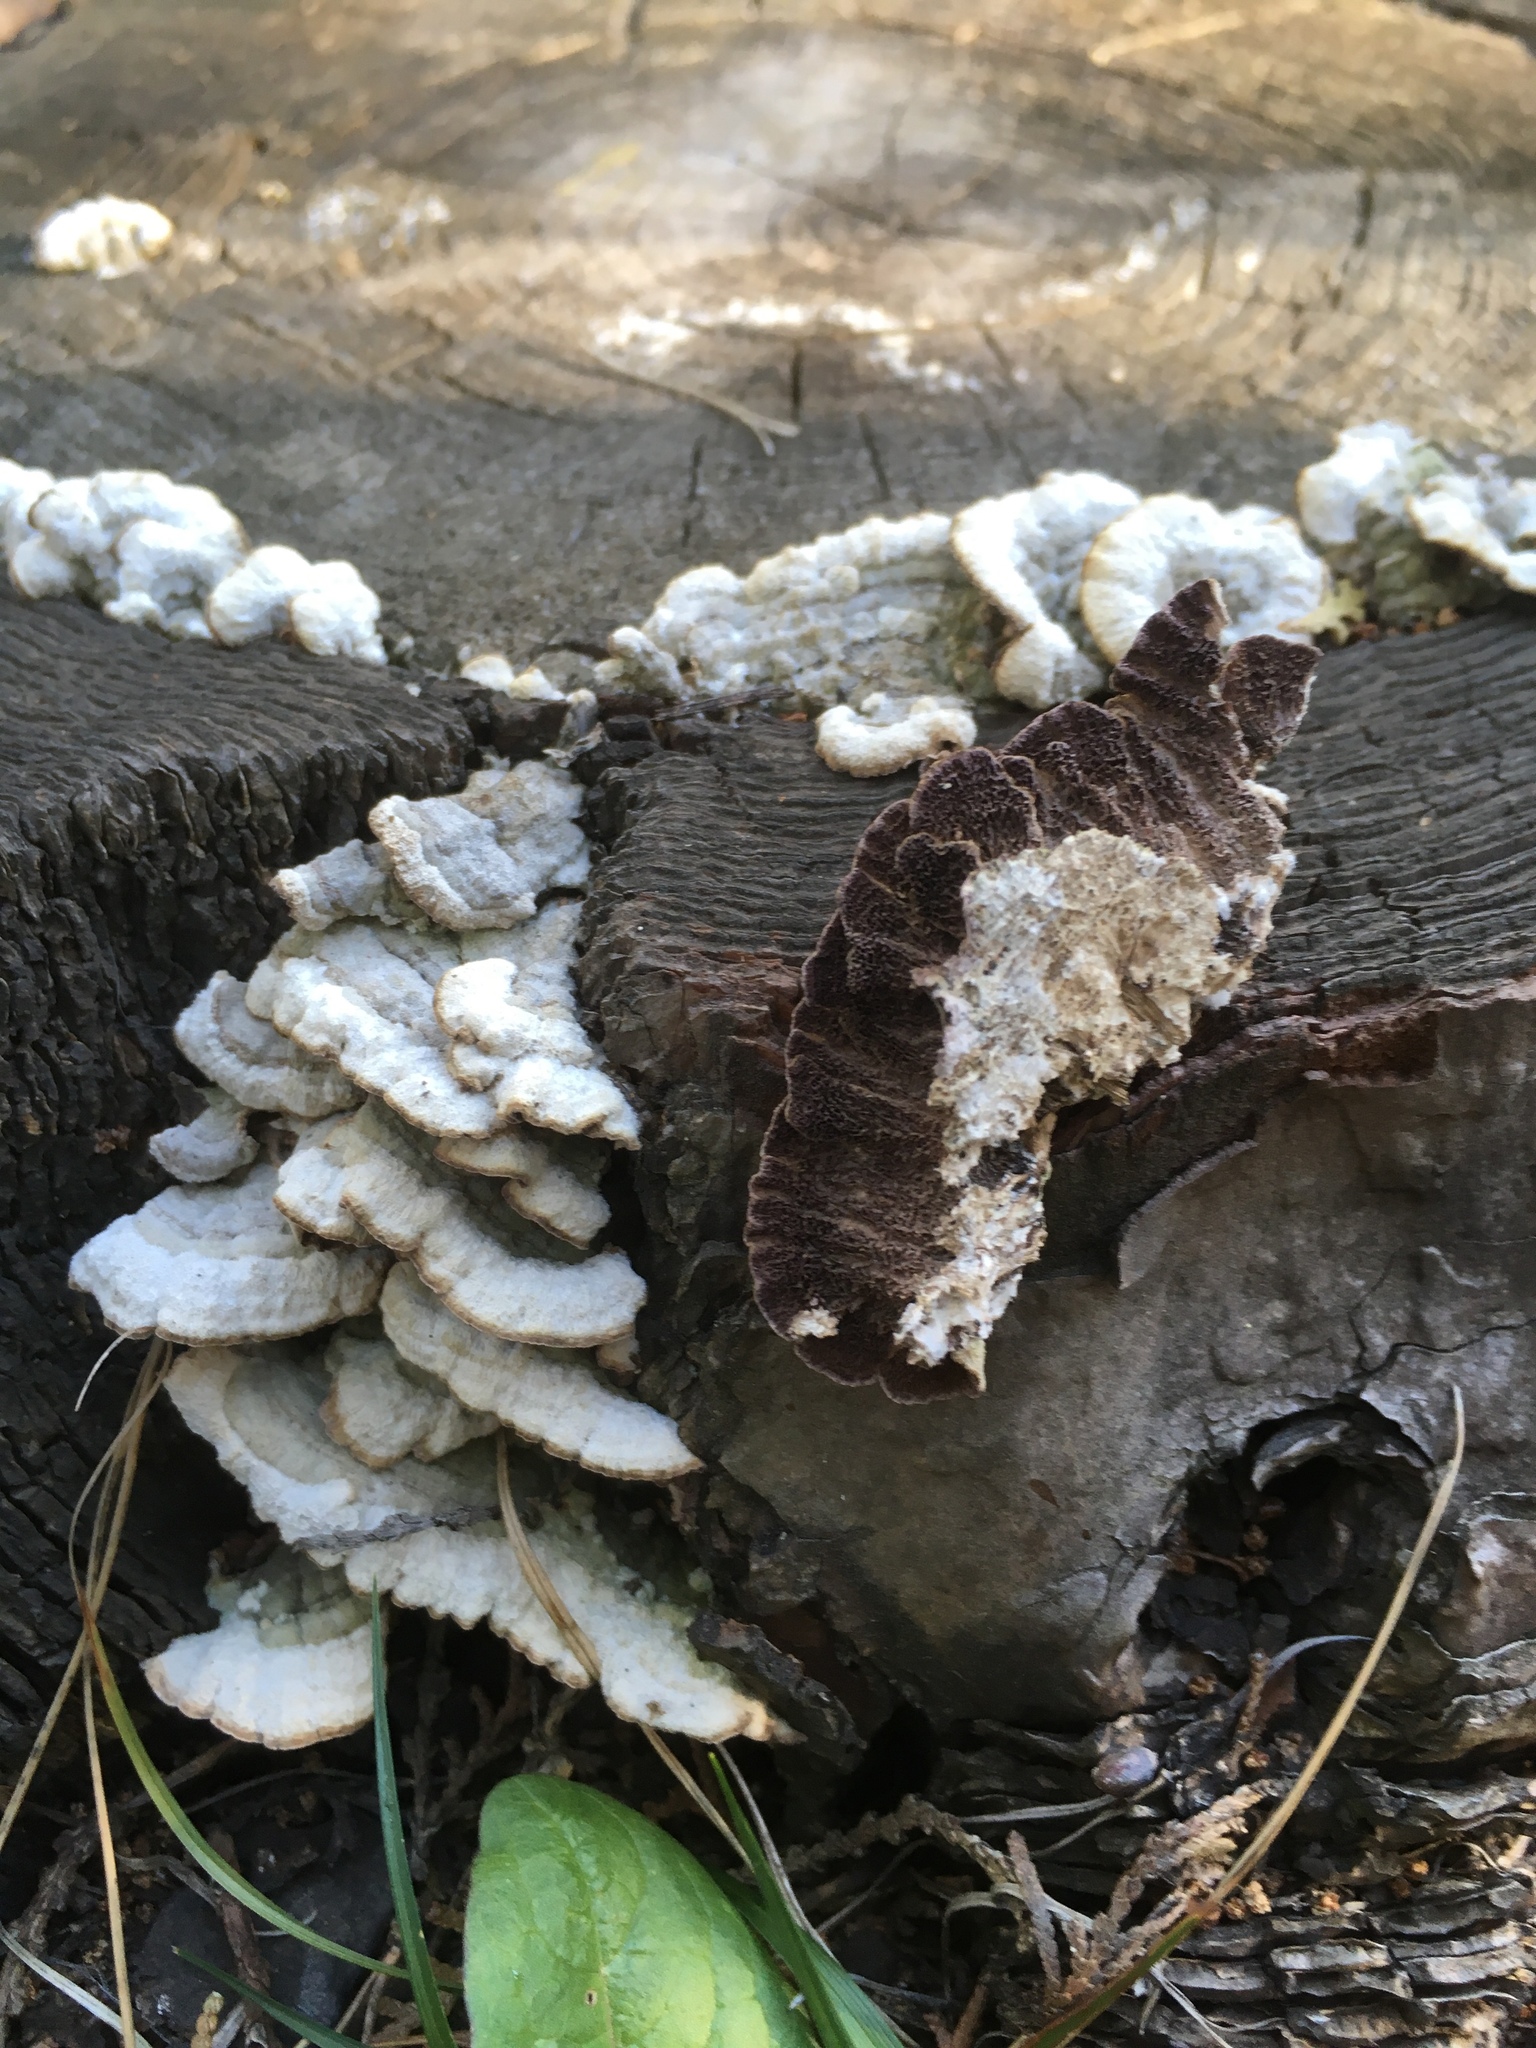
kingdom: Fungi
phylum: Basidiomycota
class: Agaricomycetes
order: Hymenochaetales
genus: Trichaptum
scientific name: Trichaptum abietinum
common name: Purplepore bracket
